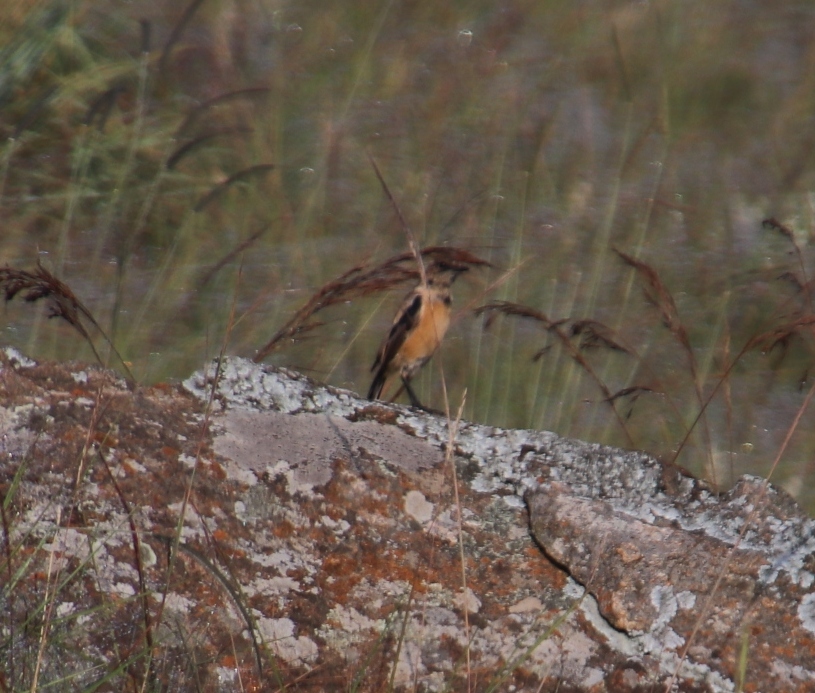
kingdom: Animalia
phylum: Chordata
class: Aves
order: Passeriformes
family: Muscicapidae
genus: Saxicola
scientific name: Saxicola torquatus
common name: African stonechat
